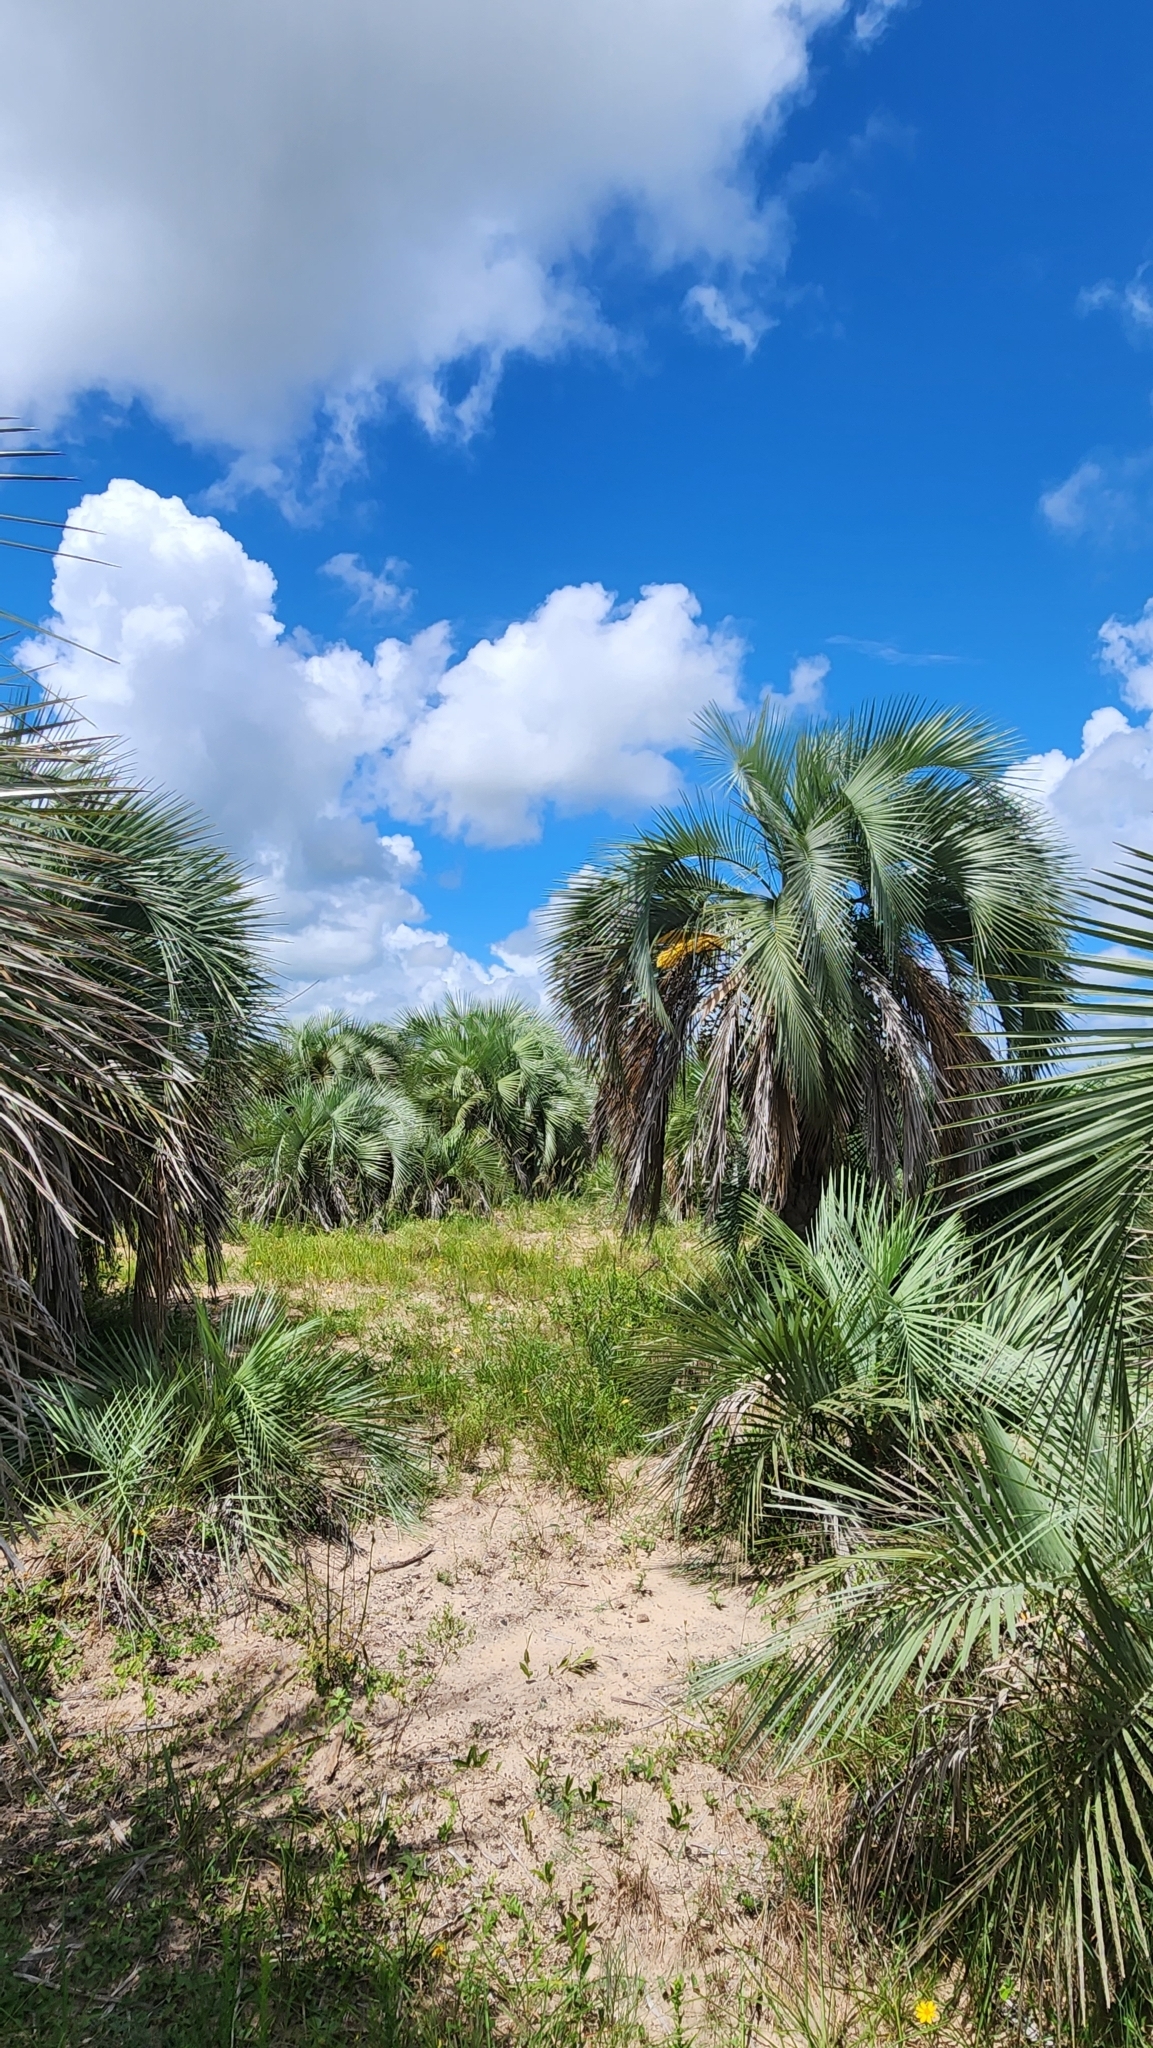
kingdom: Plantae
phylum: Tracheophyta
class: Liliopsida
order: Arecales
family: Arecaceae
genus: Butia
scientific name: Butia yatay
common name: Yatay palm
